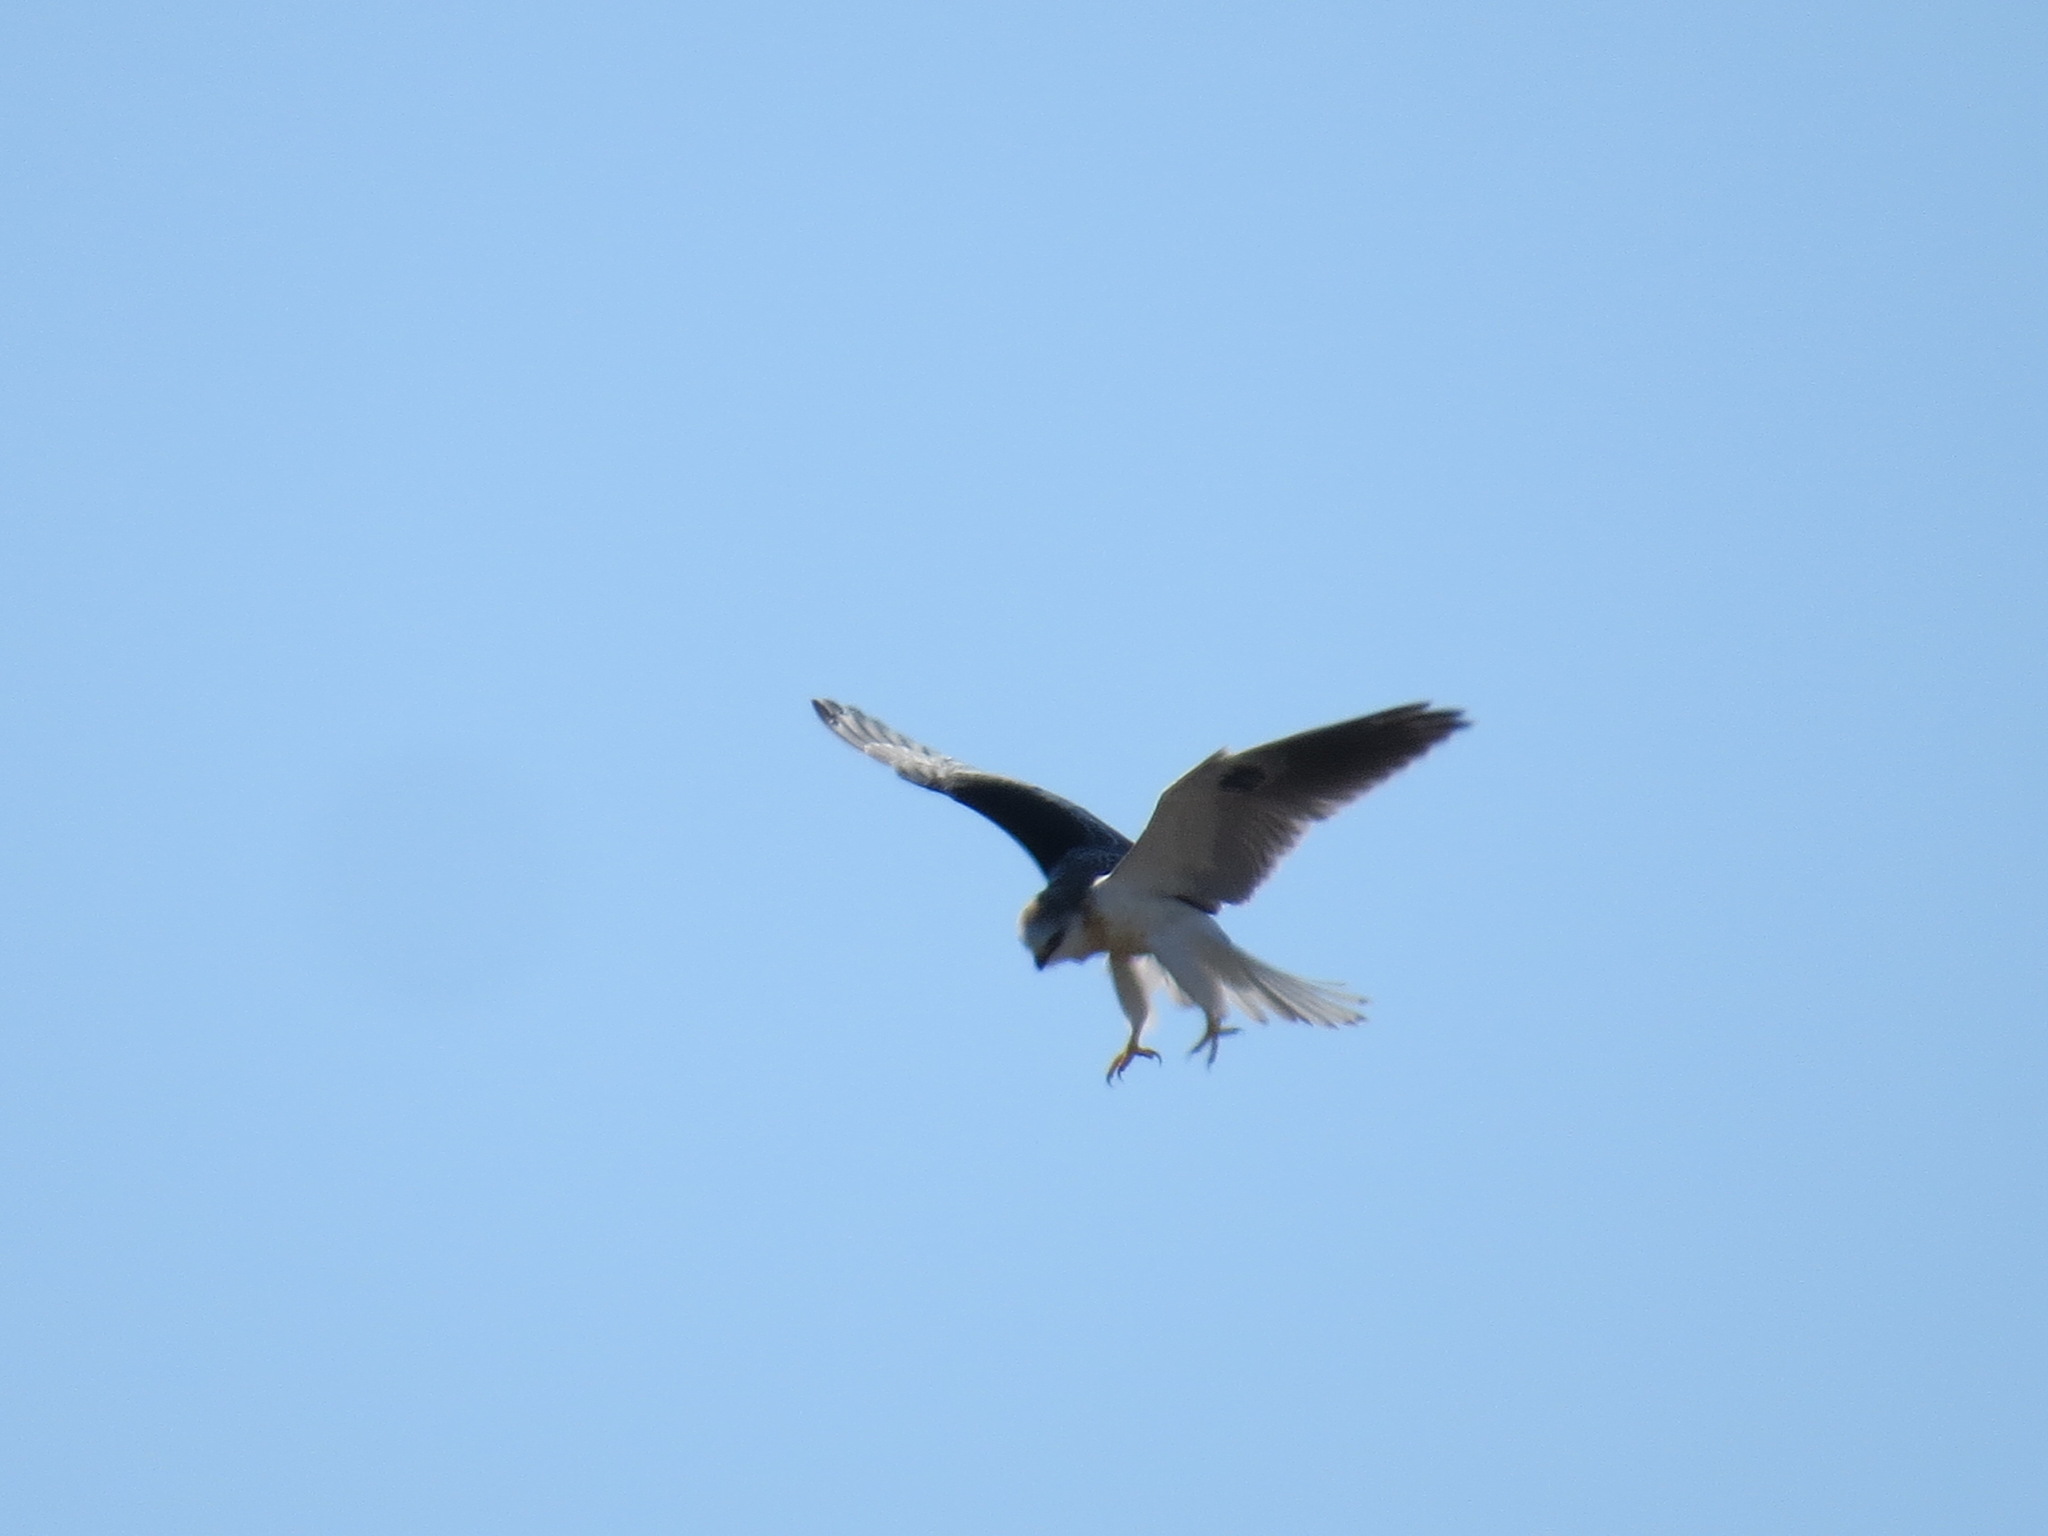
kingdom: Animalia
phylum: Chordata
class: Aves
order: Accipitriformes
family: Accipitridae
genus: Elanus
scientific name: Elanus leucurus
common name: White-tailed kite
